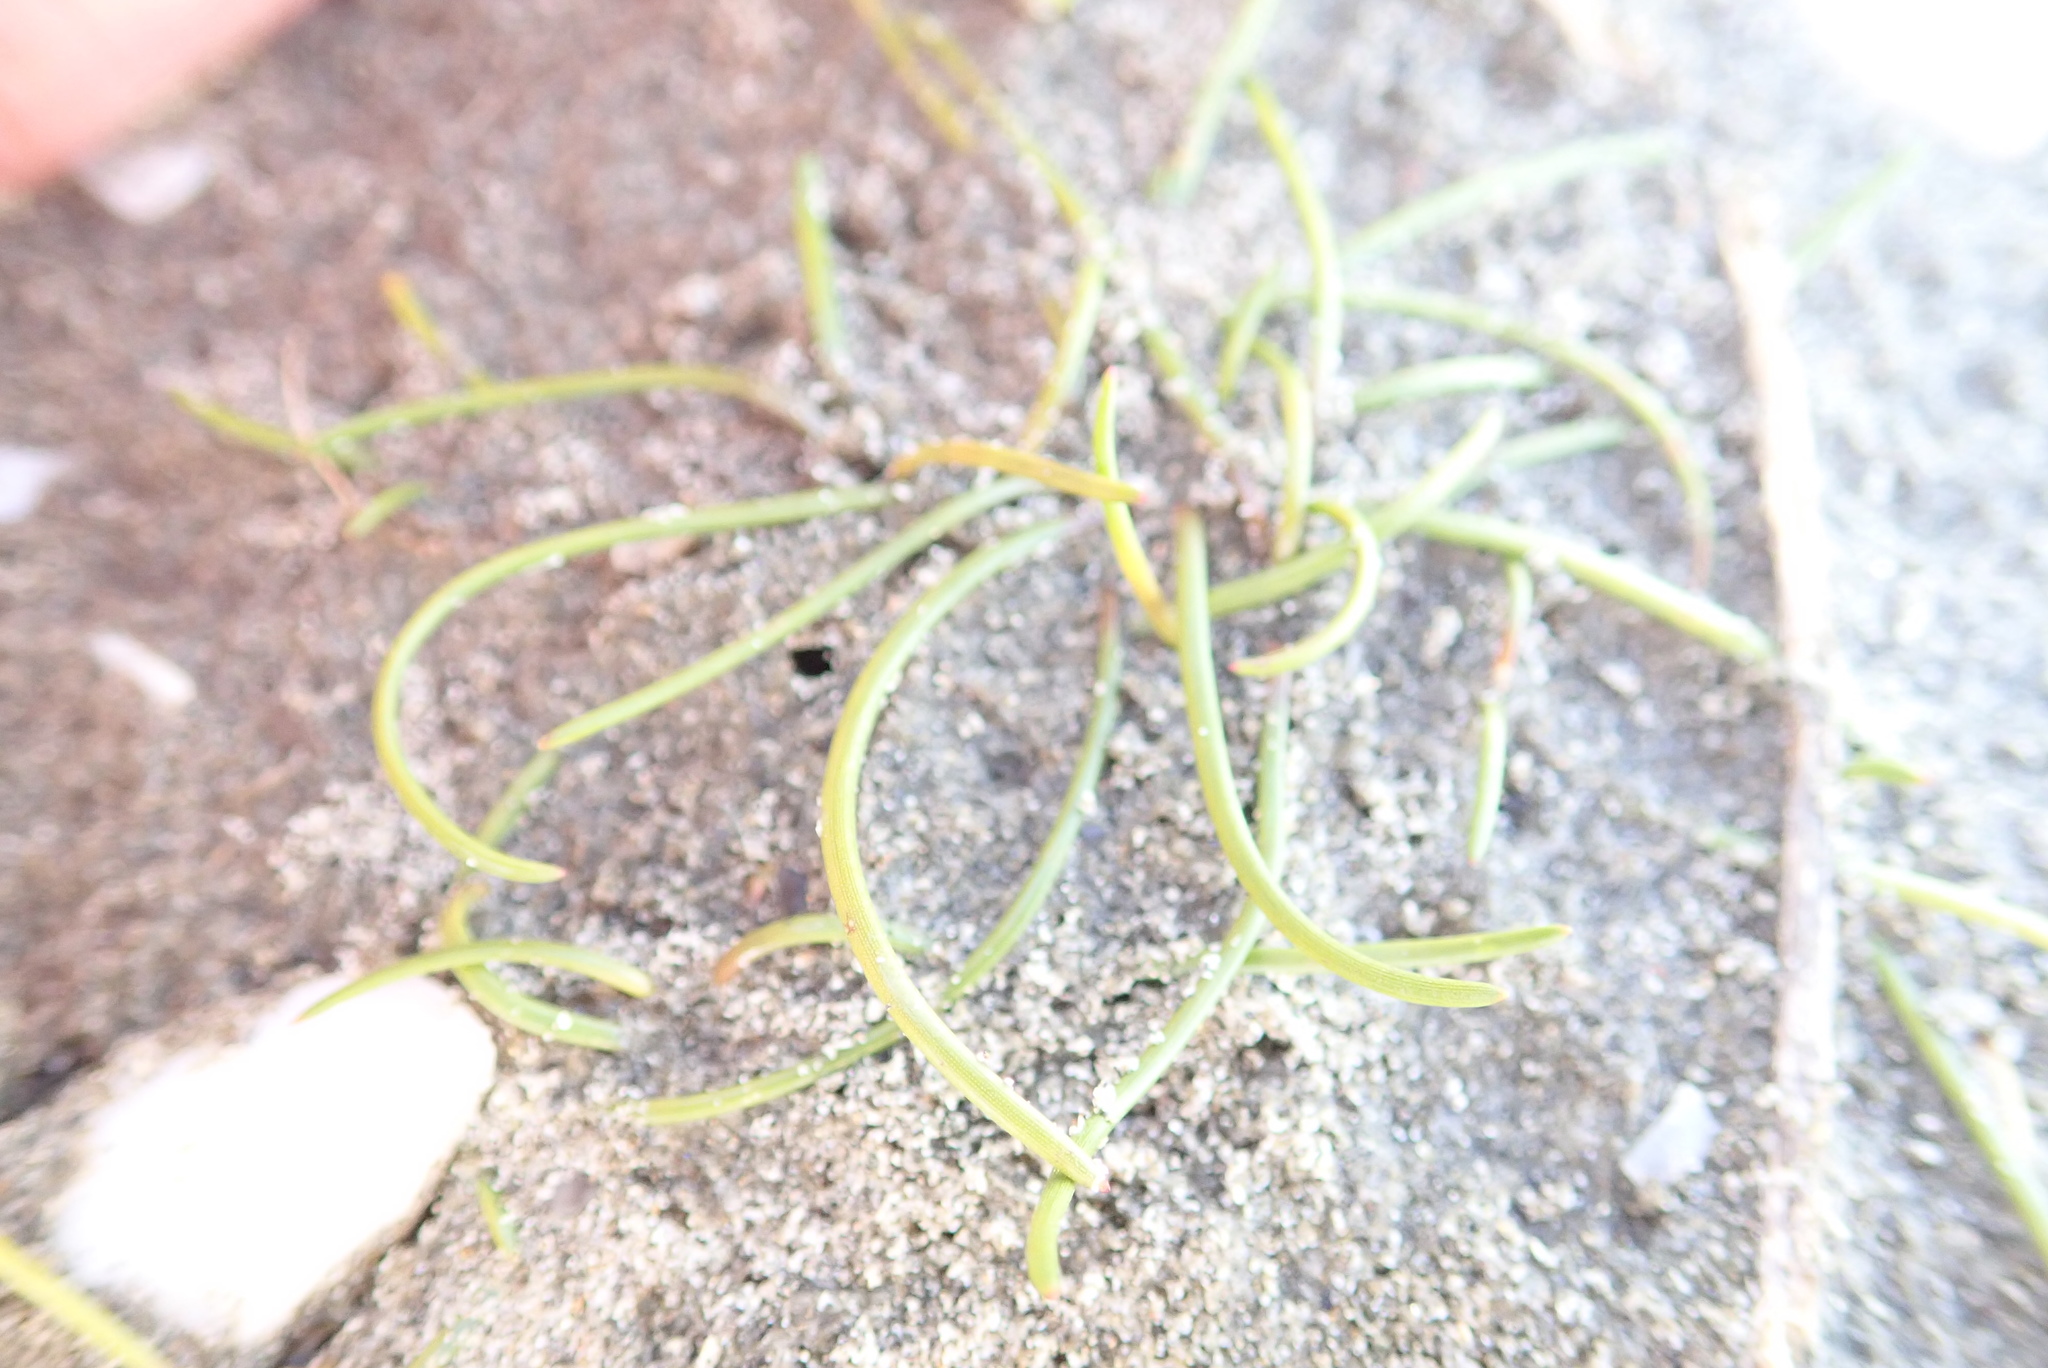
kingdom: Plantae
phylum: Tracheophyta
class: Liliopsida
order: Alismatales
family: Juncaginaceae
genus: Triglochin
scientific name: Triglochin striata
